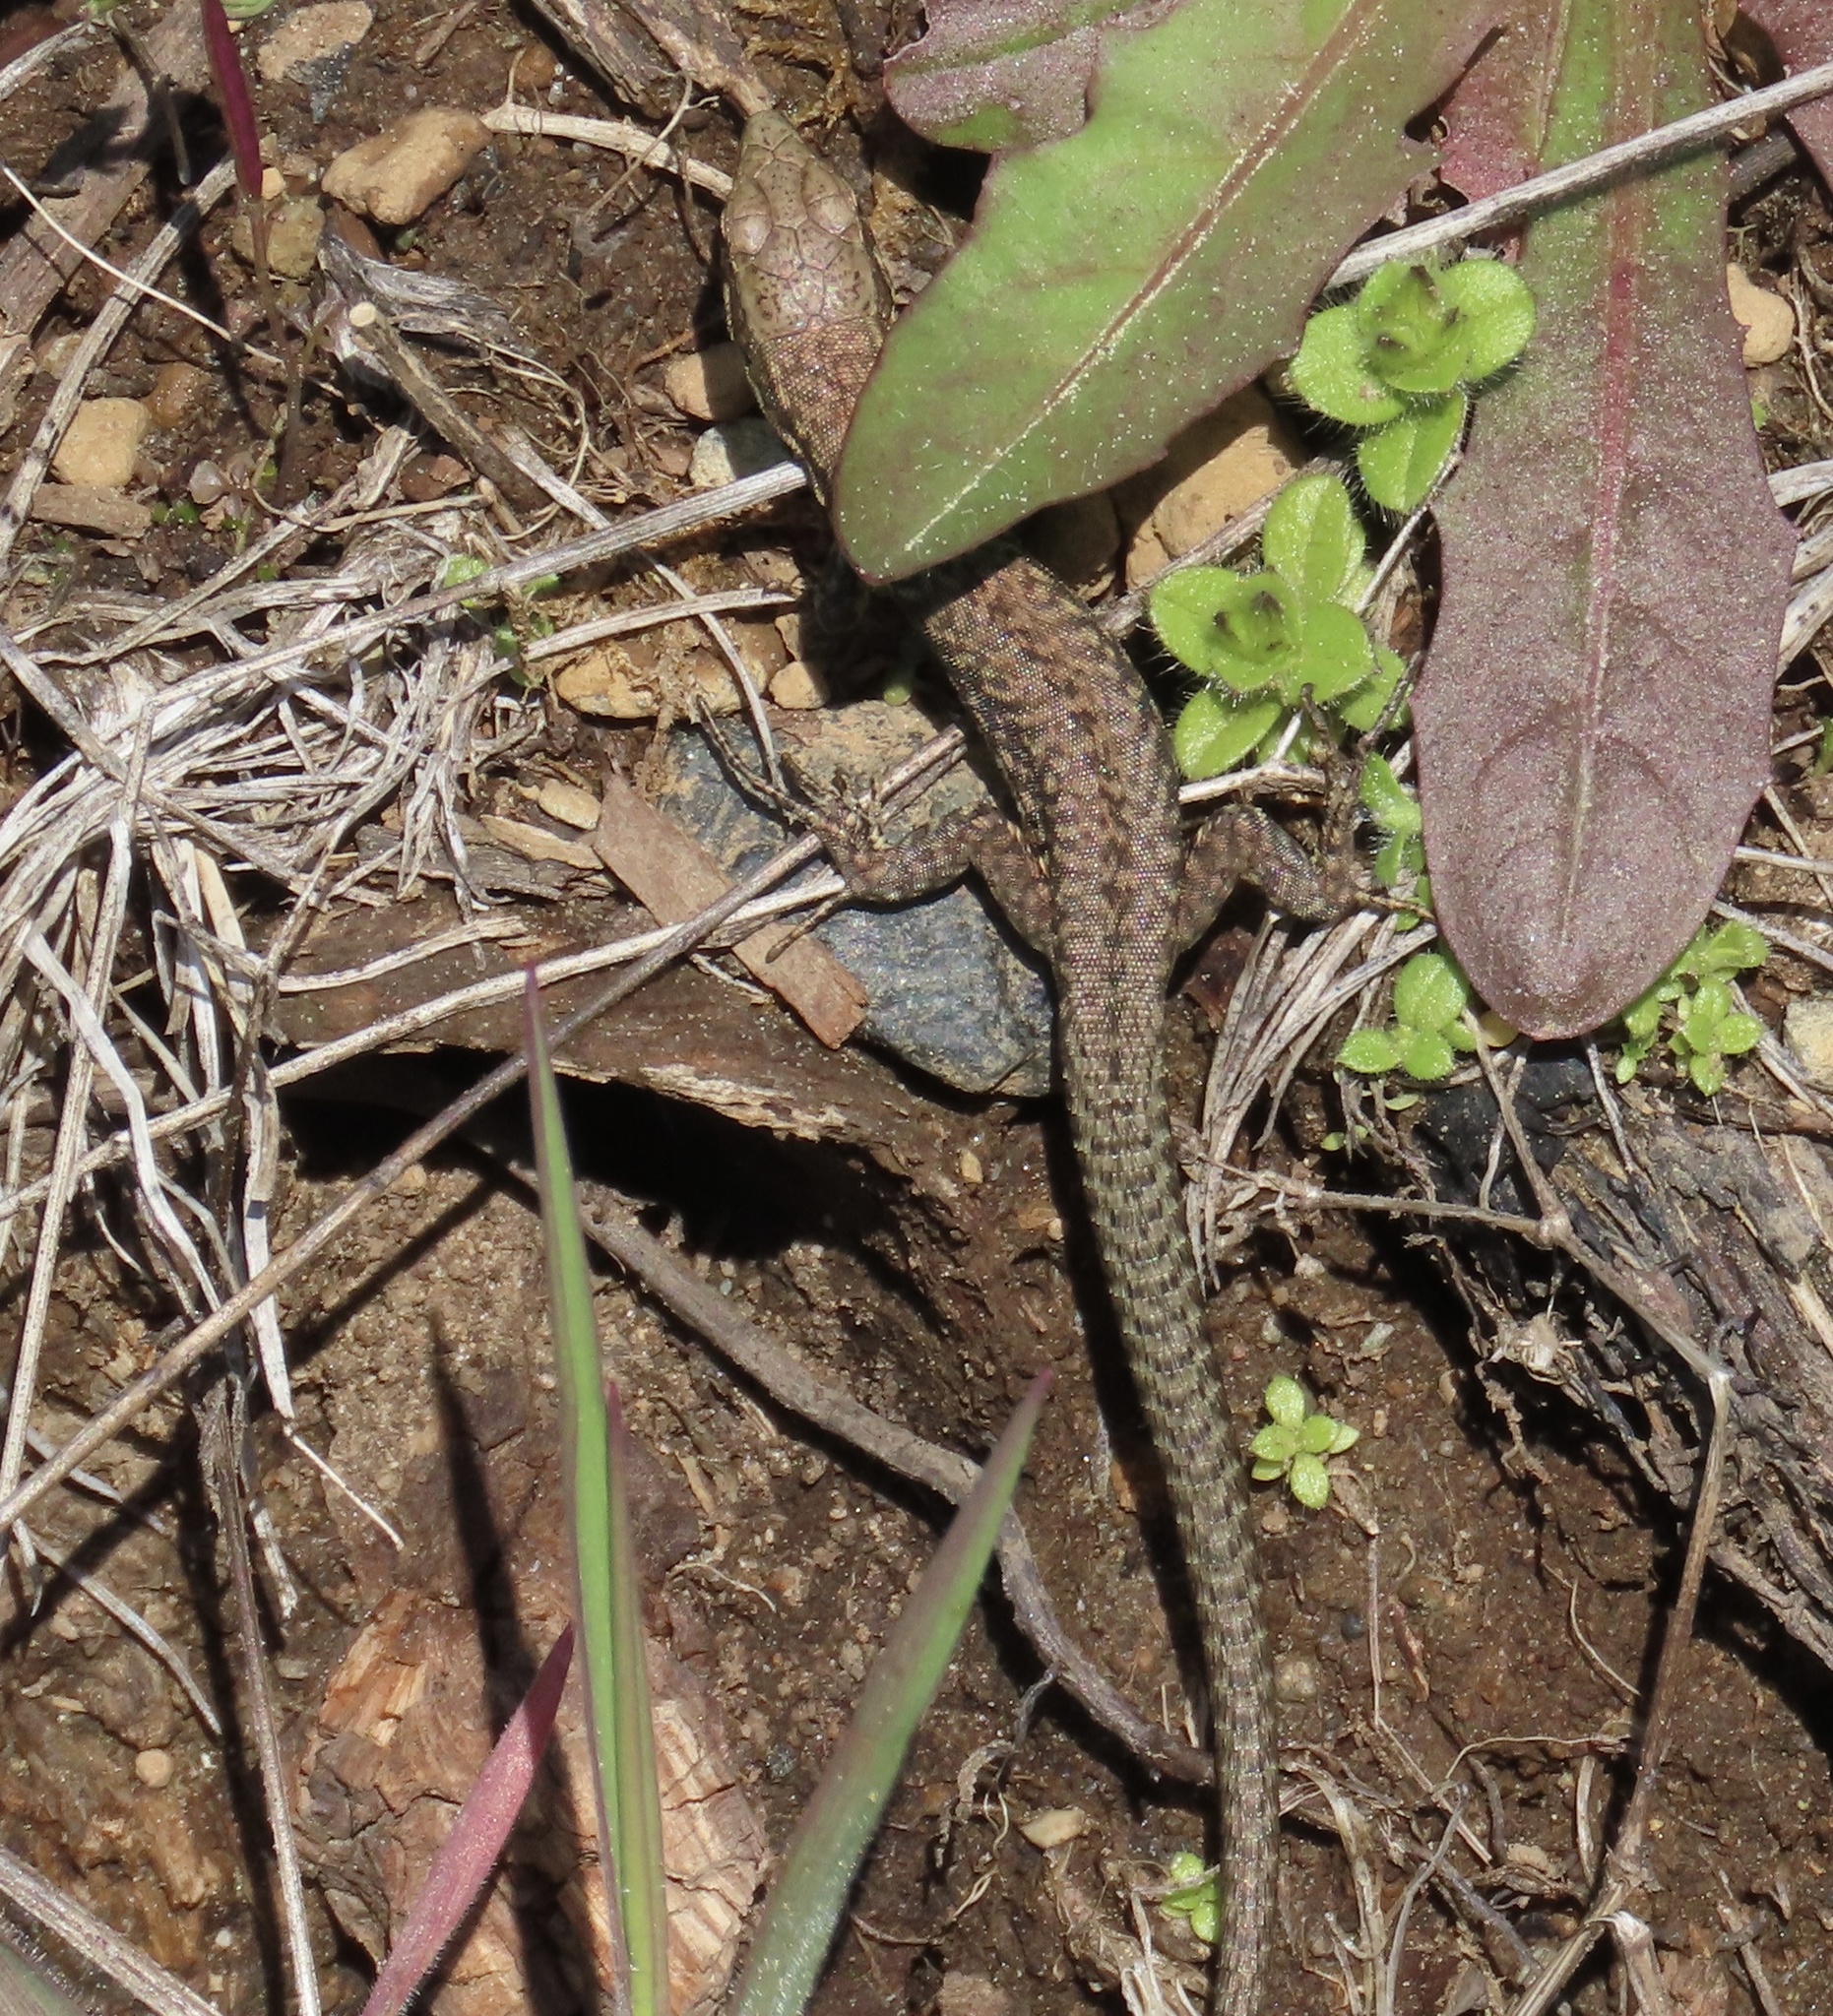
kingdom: Animalia
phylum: Chordata
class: Squamata
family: Lacertidae
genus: Podarcis
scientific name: Podarcis muralis
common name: Common wall lizard
